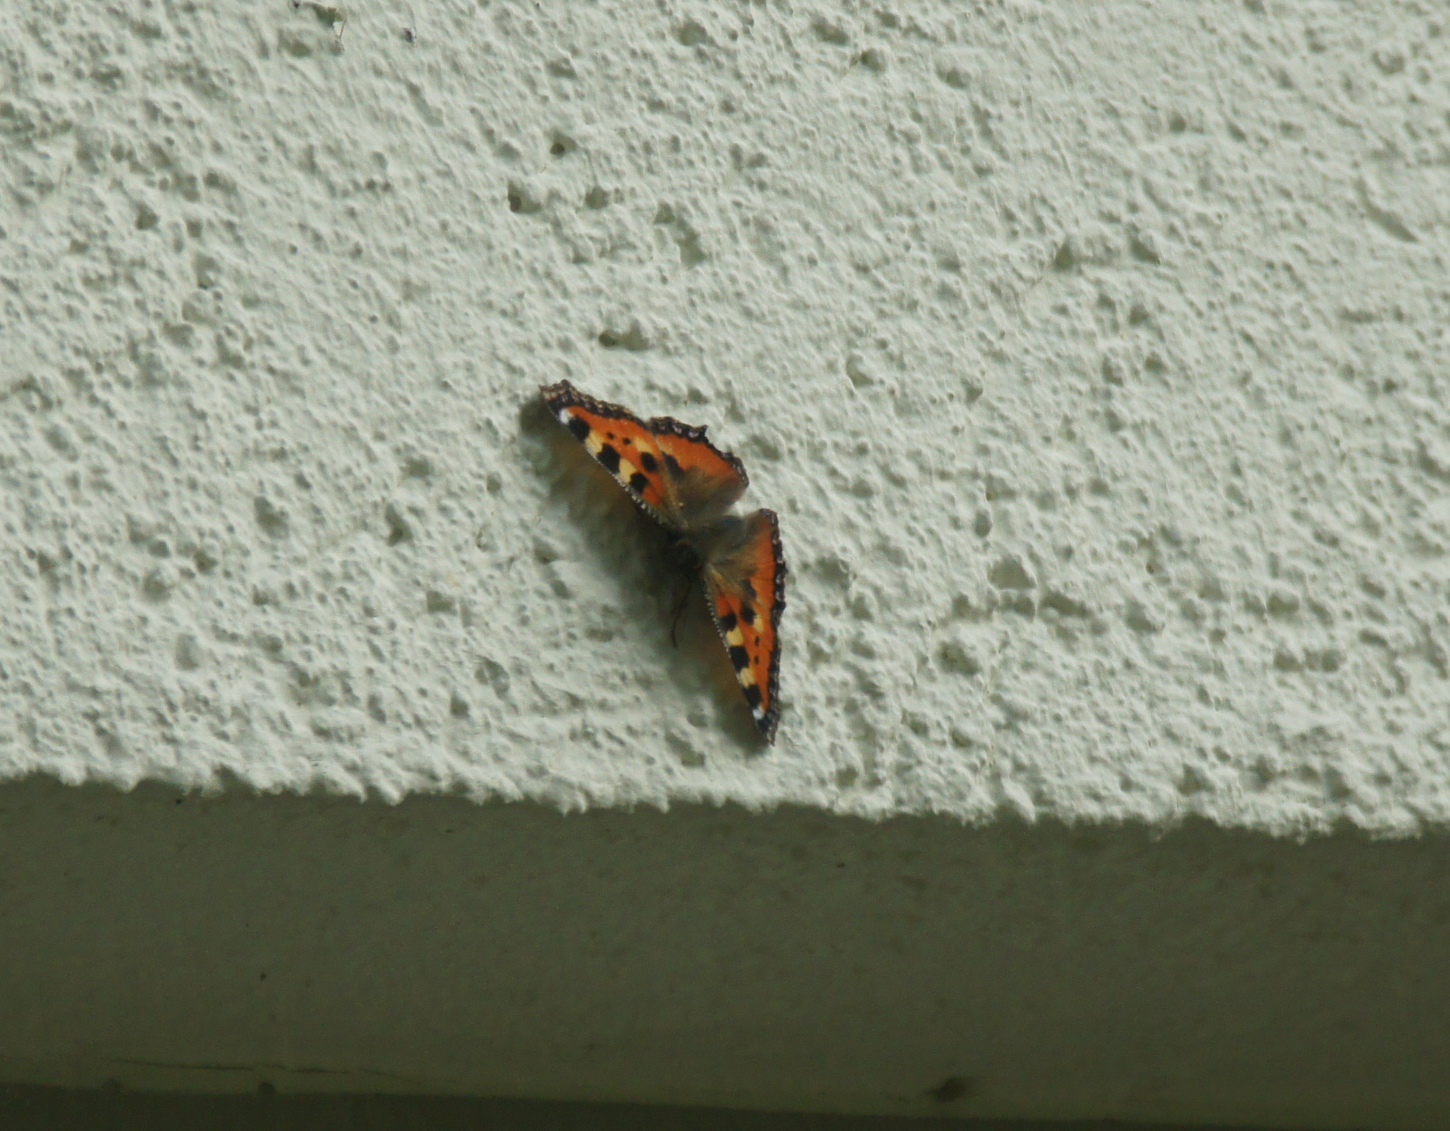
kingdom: Animalia
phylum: Arthropoda
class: Insecta
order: Lepidoptera
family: Nymphalidae
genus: Aglais
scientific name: Aglais urticae
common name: Small tortoiseshell
